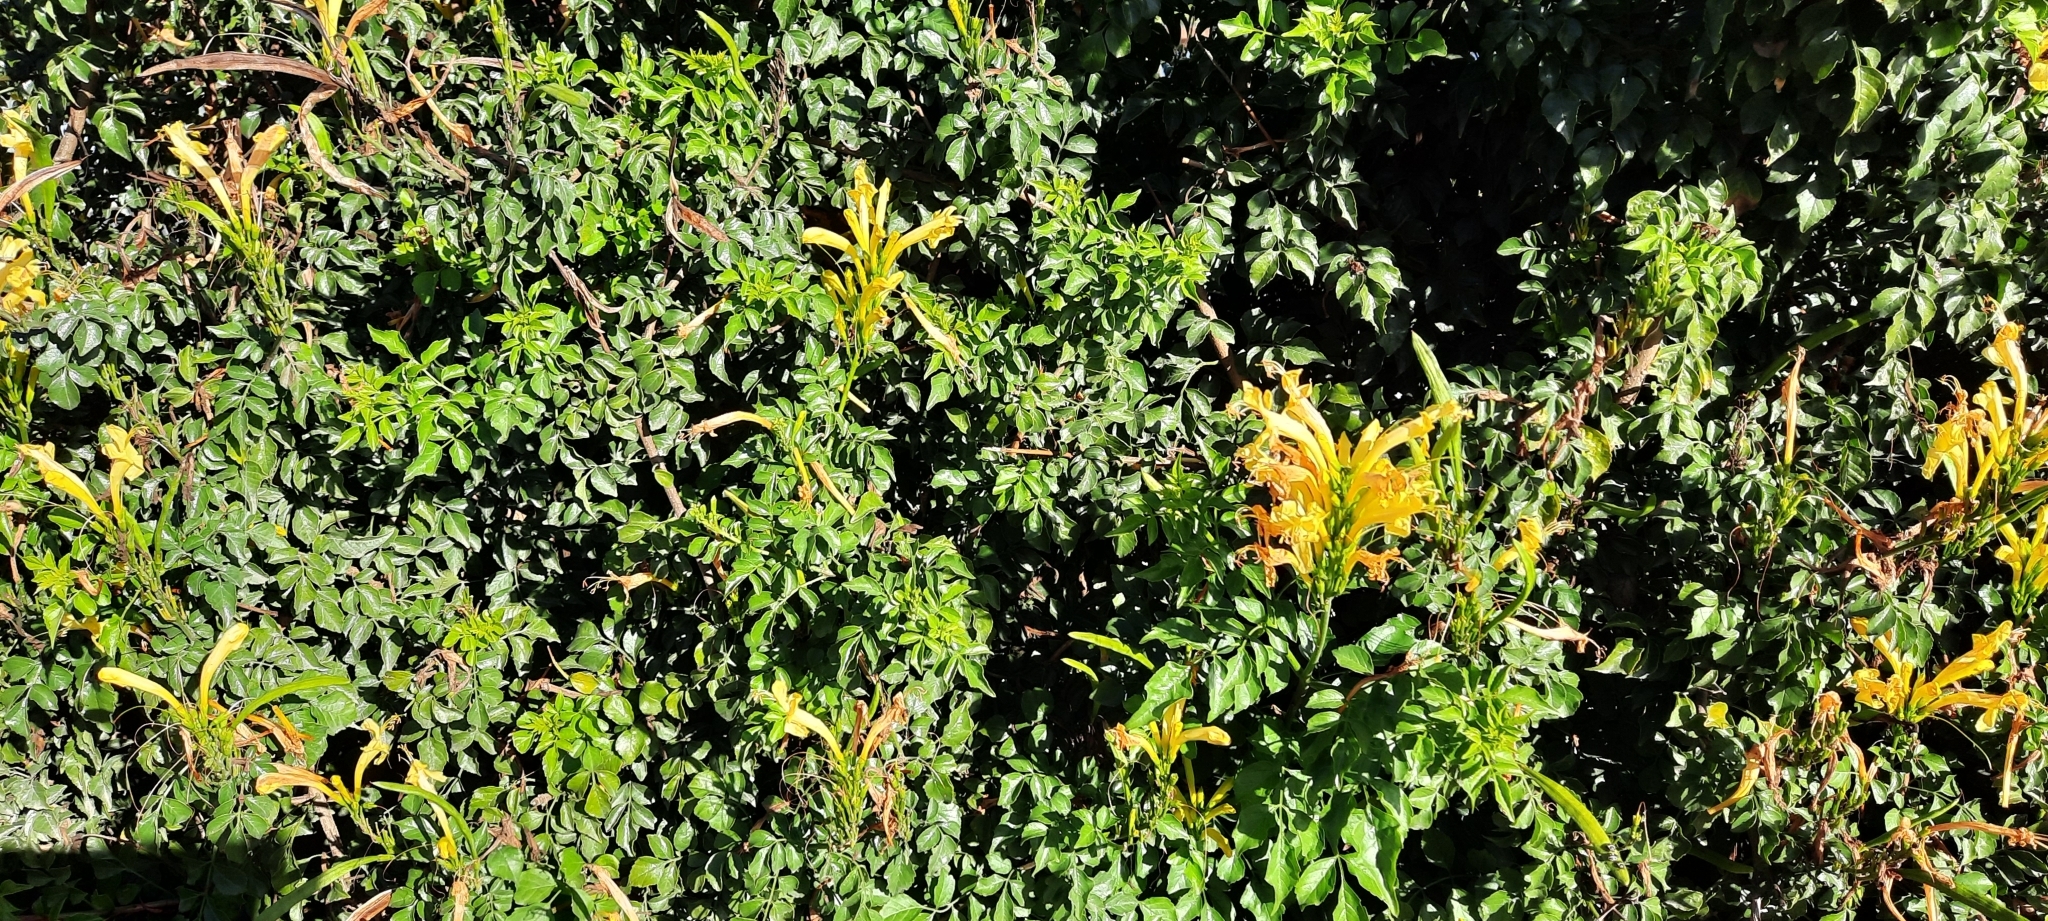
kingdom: Plantae
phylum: Tracheophyta
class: Magnoliopsida
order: Lamiales
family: Bignoniaceae
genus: Tecomaria
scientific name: Tecomaria capensis
